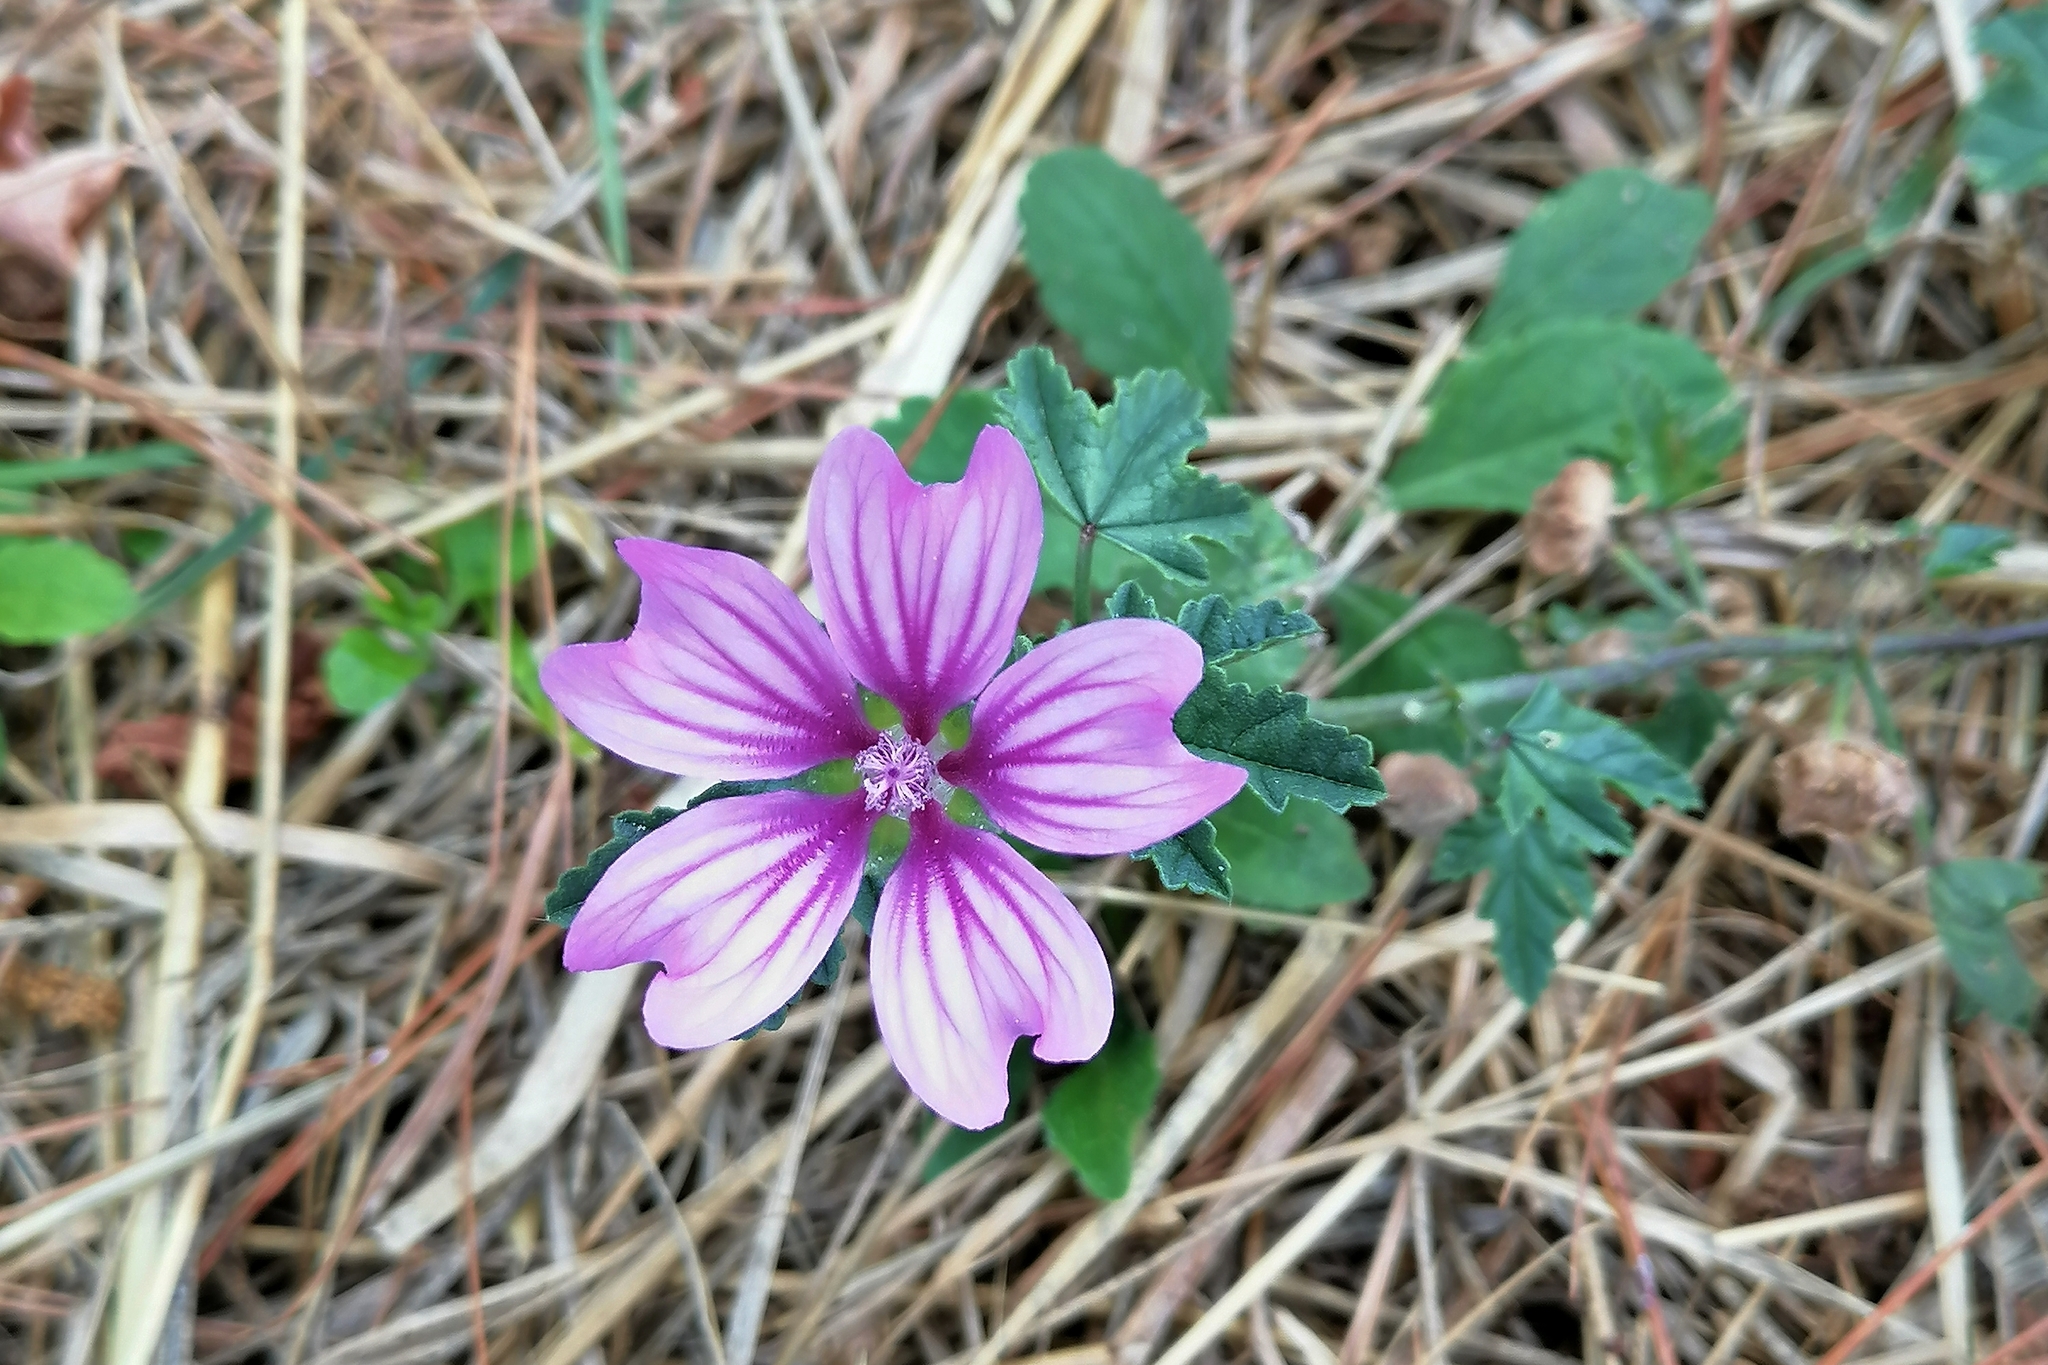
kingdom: Plantae
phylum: Tracheophyta
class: Magnoliopsida
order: Malvales
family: Malvaceae
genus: Malva
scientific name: Malva sylvestris
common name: Common mallow
